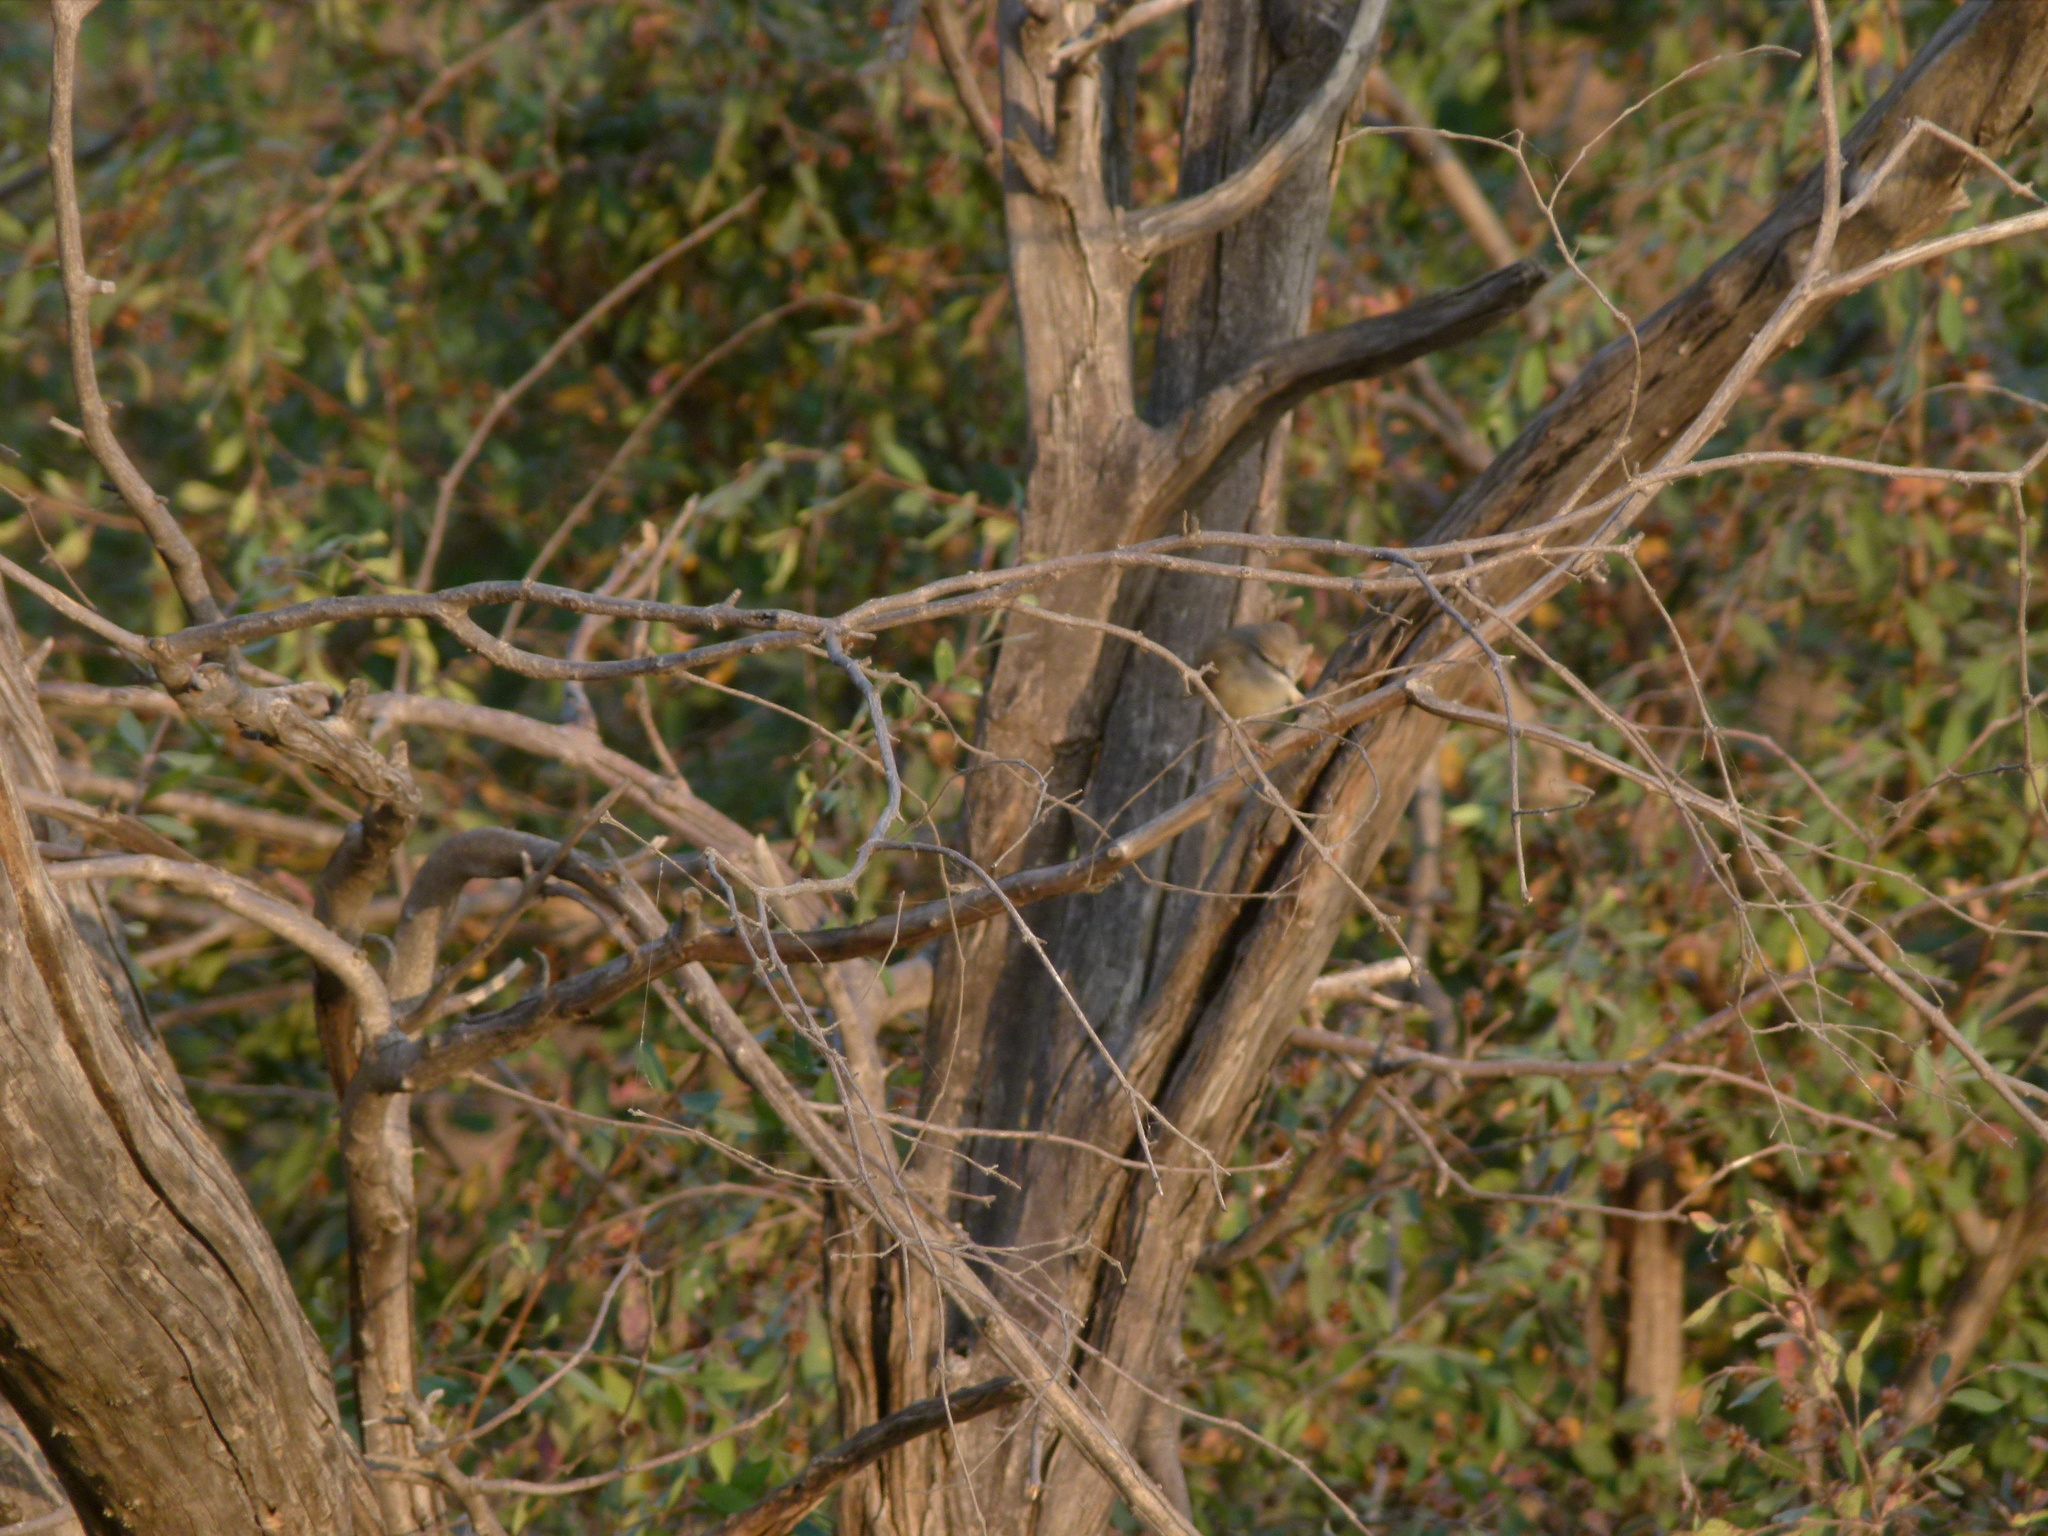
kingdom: Animalia
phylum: Chordata
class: Aves
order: Passeriformes
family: Cisticolidae
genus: Prinia
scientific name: Prinia inornata
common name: Plain prinia
